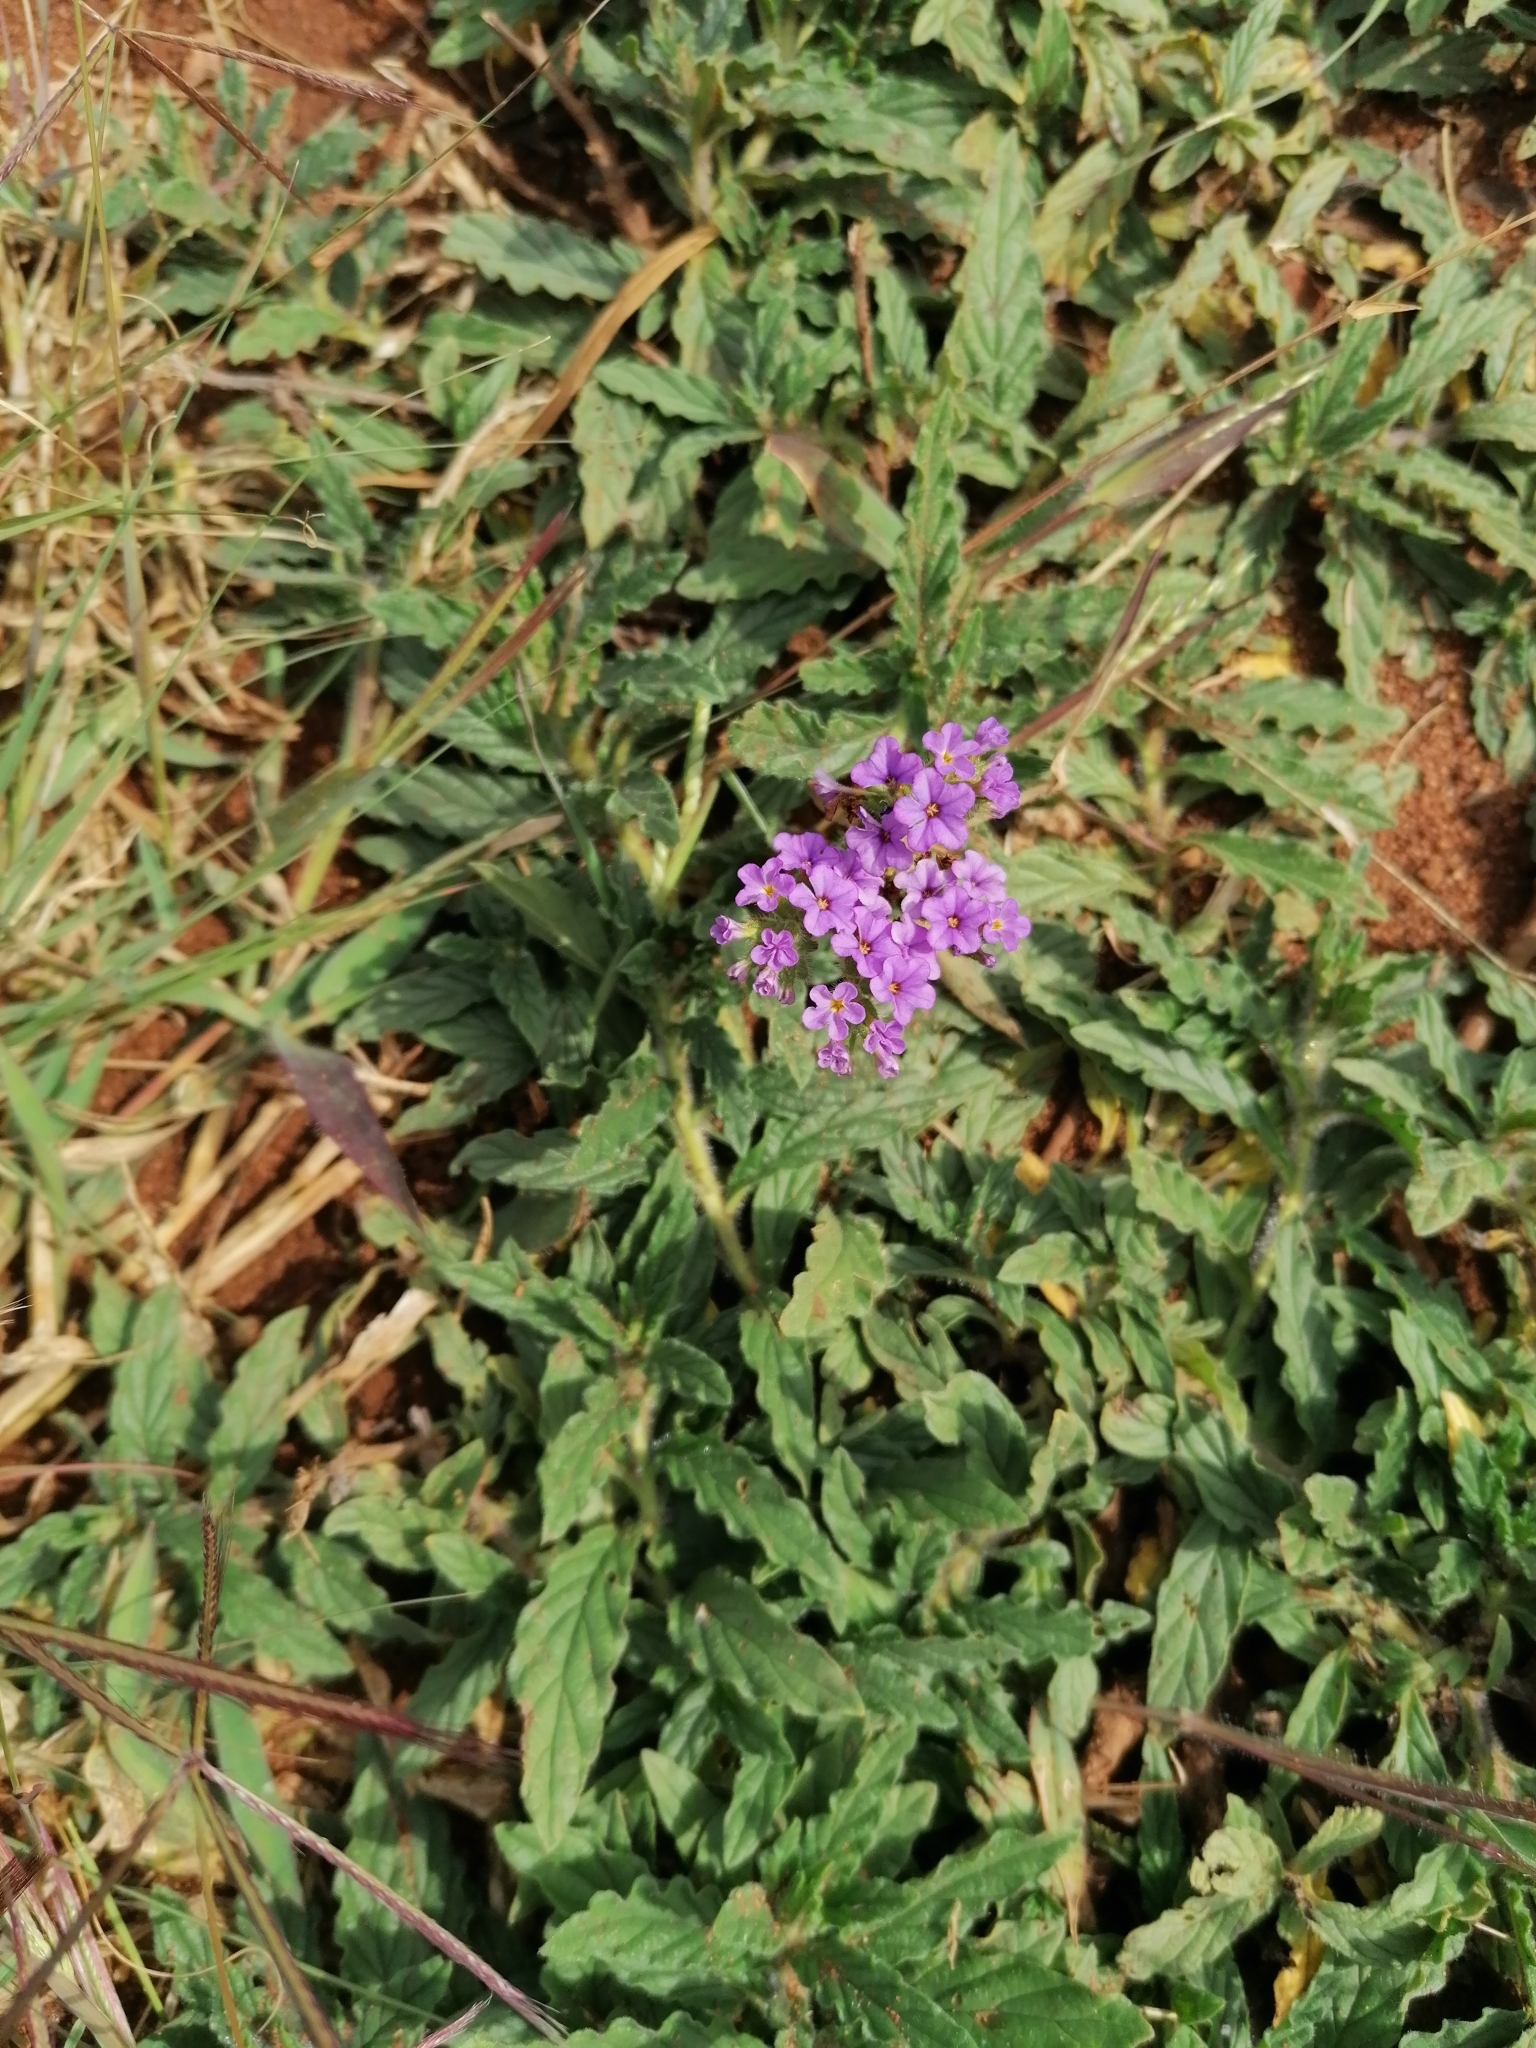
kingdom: Plantae
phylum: Tracheophyta
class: Magnoliopsida
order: Boraginales
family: Heliotropiaceae
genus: Heliotropium
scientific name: Heliotropium amplexicaule
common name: Clasping heliotrope
